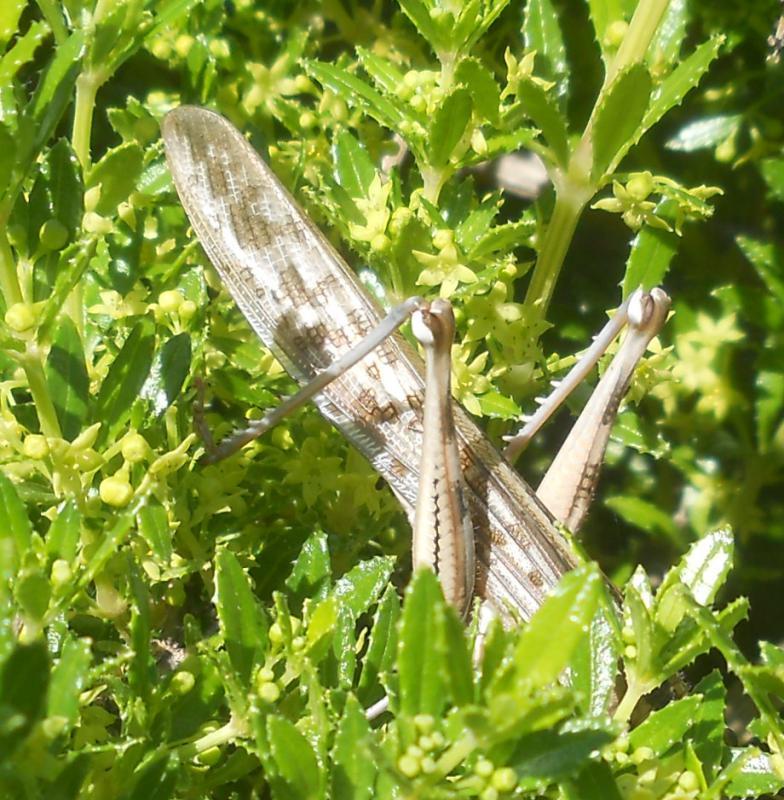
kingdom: Animalia
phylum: Arthropoda
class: Insecta
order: Orthoptera
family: Acrididae
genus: Schistocerca
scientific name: Schistocerca gregaria
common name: Desert locust
